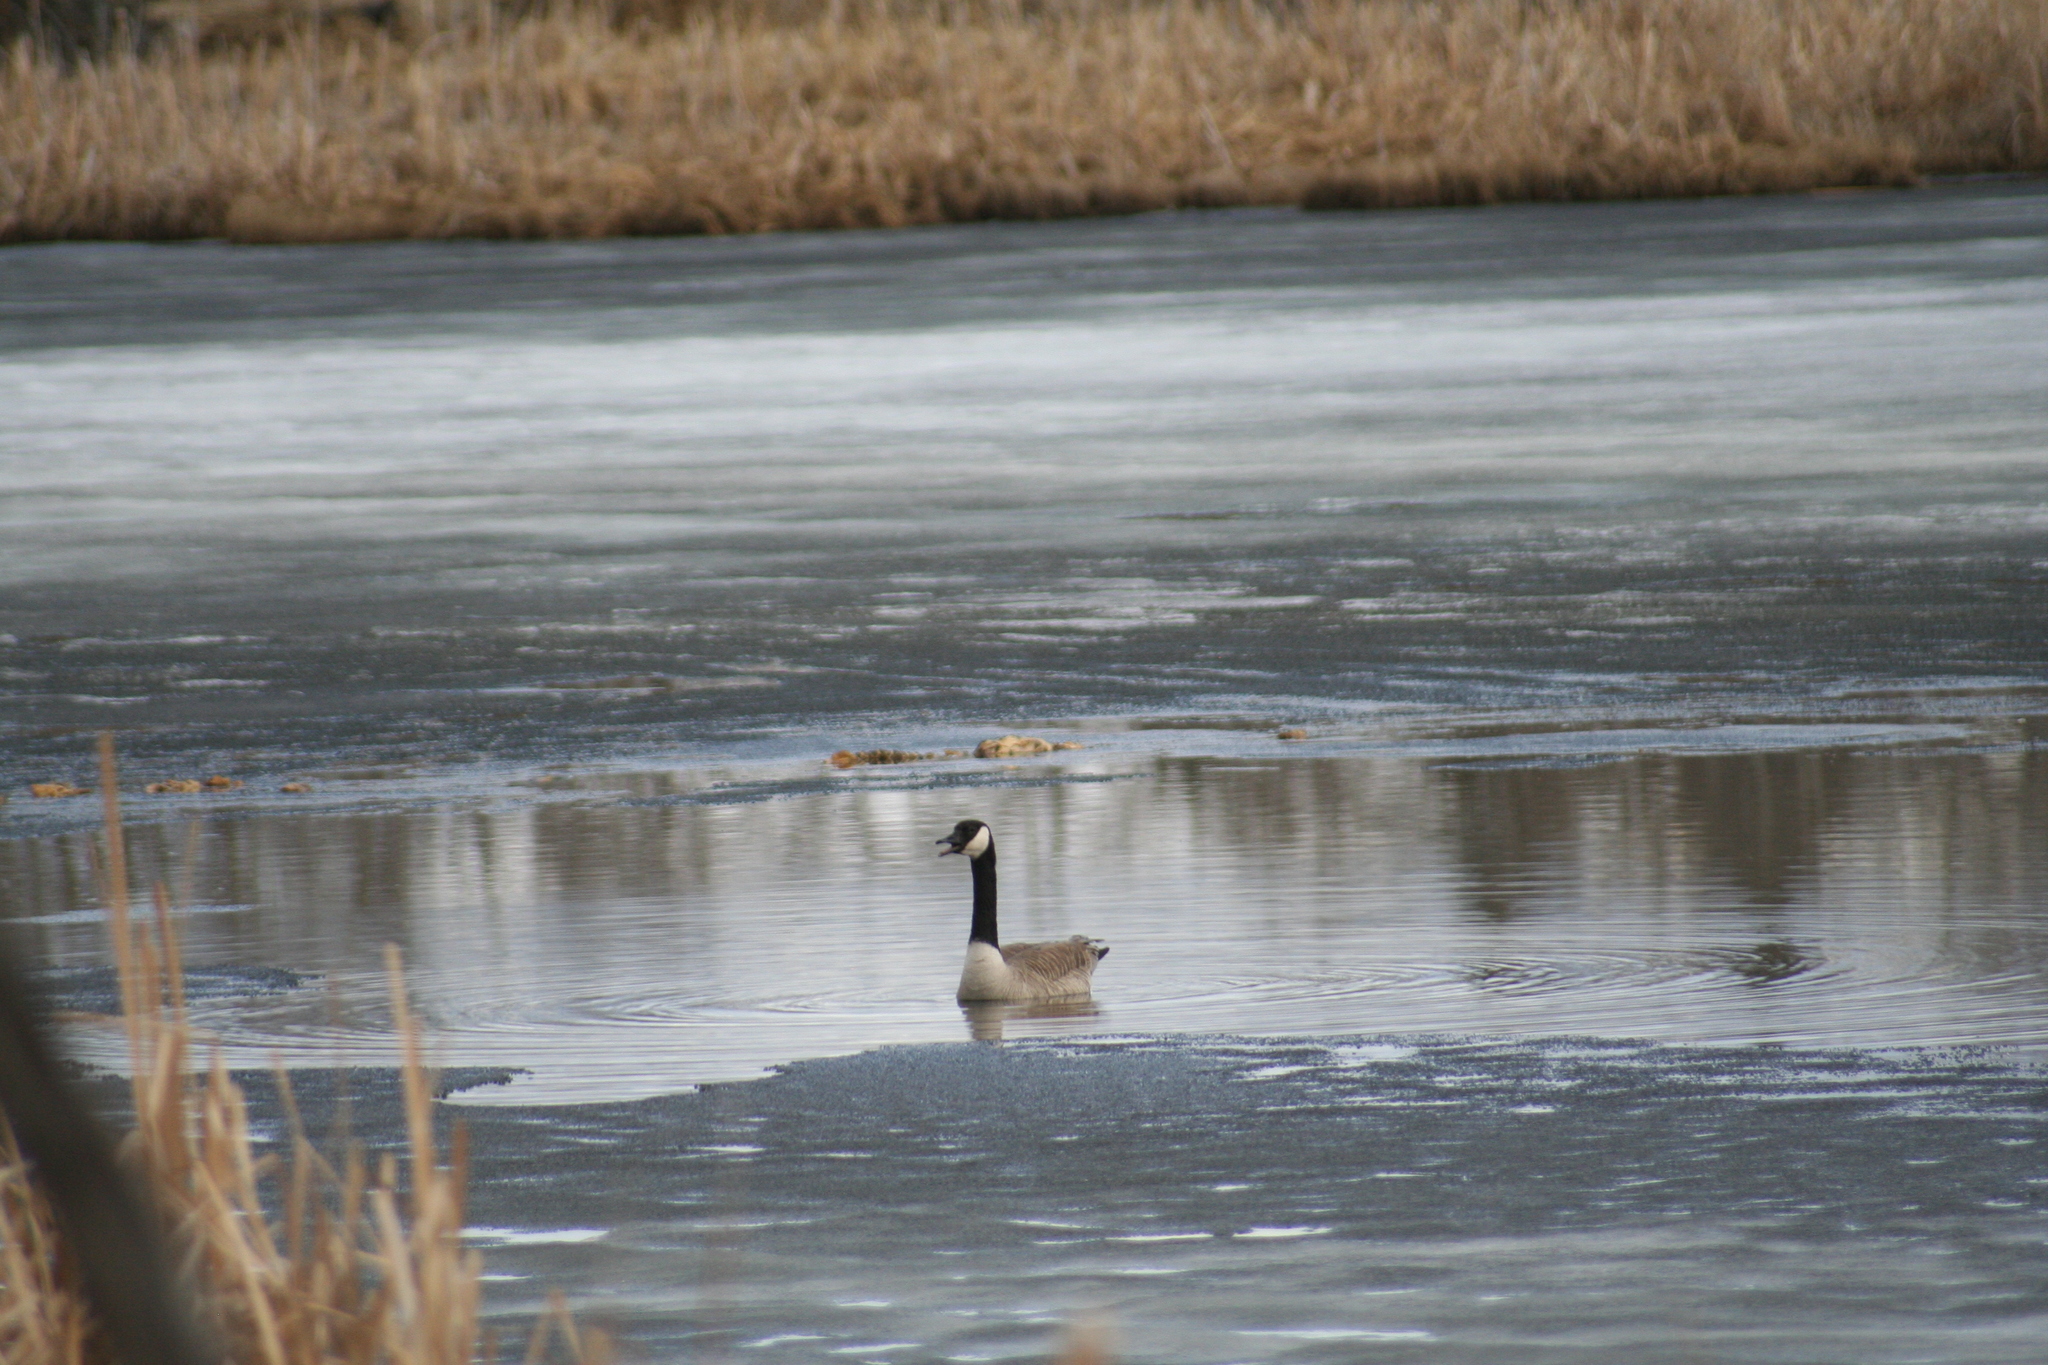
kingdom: Animalia
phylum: Chordata
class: Aves
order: Anseriformes
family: Anatidae
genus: Branta
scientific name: Branta canadensis
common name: Canada goose
